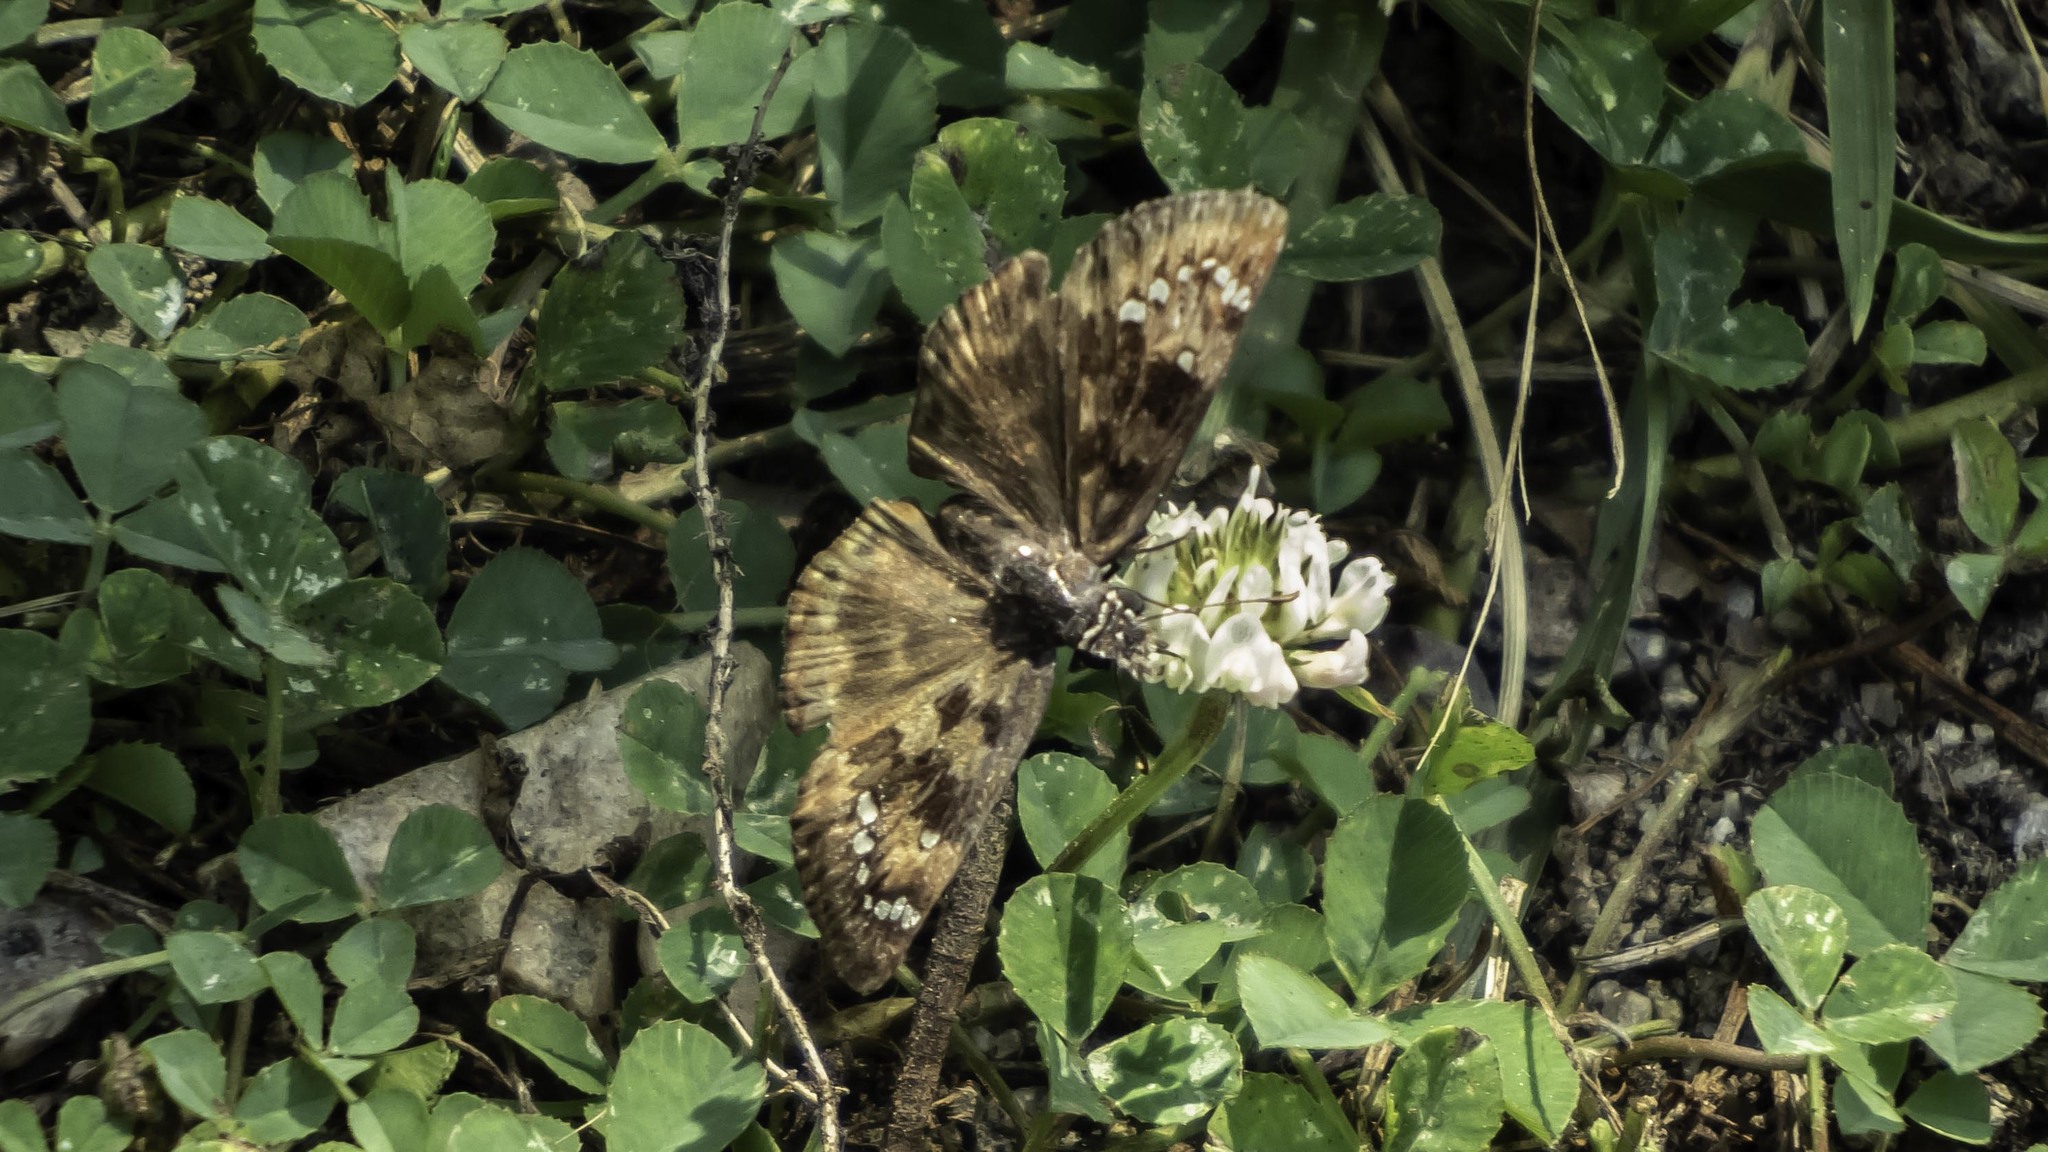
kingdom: Animalia
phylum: Arthropoda
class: Insecta
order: Lepidoptera
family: Hesperiidae
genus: Erynnis
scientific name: Erynnis horatius
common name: Horace's duskywing
